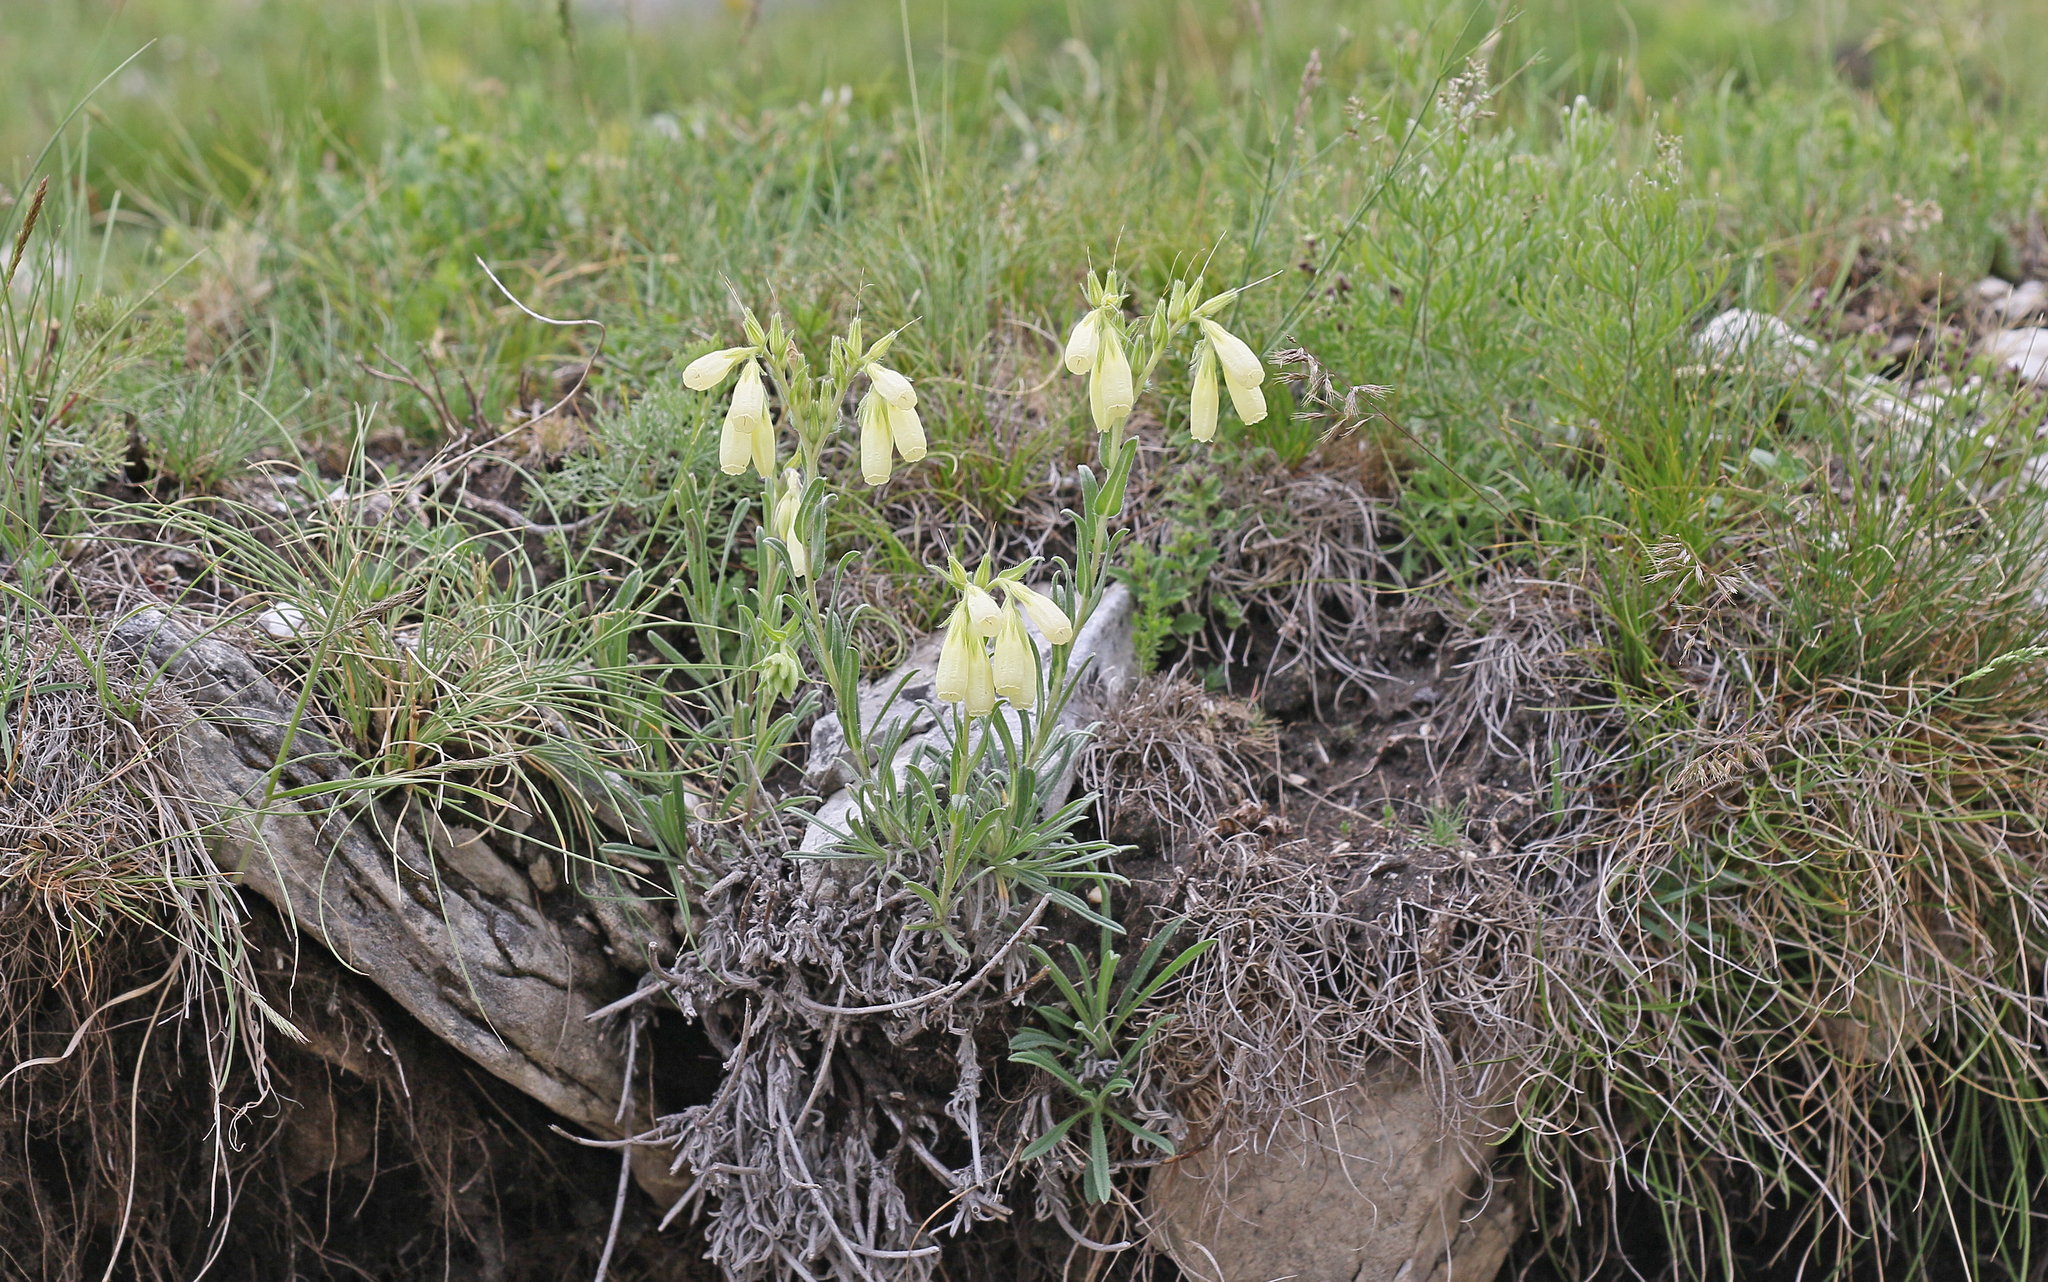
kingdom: Plantae
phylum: Tracheophyta
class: Magnoliopsida
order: Boraginales
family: Boraginaceae
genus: Onosma
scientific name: Onosma heterophylla
